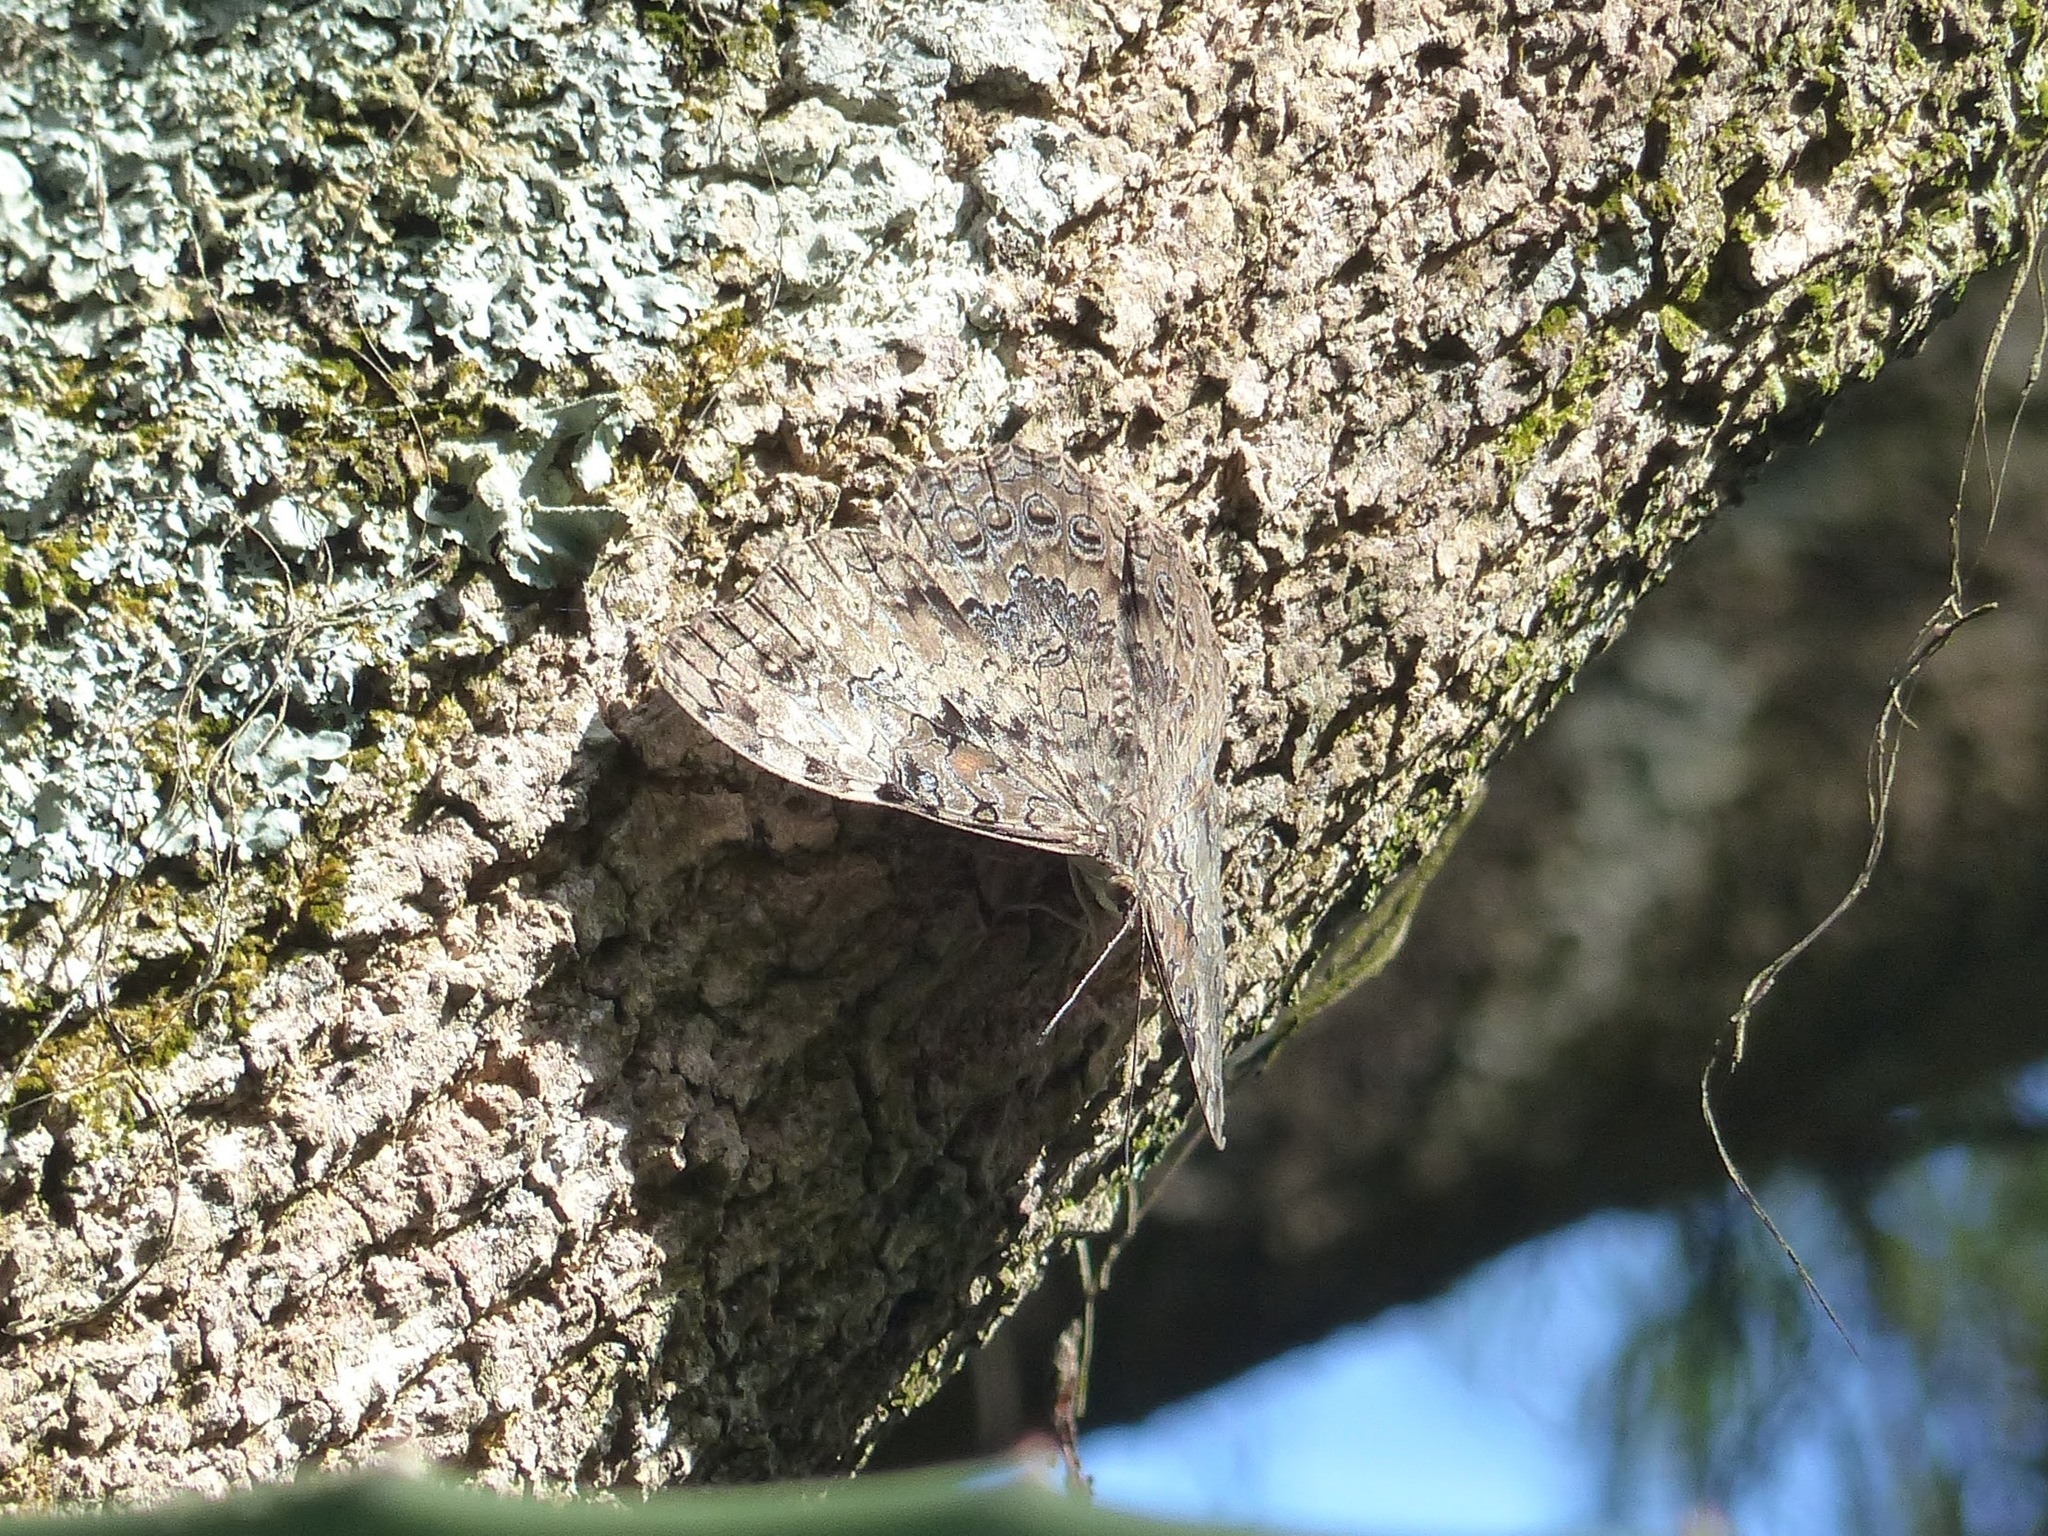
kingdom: Animalia
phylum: Arthropoda
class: Insecta
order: Lepidoptera
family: Nymphalidae
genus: Hamadryas
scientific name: Hamadryas epinome
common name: Epinome cracker
